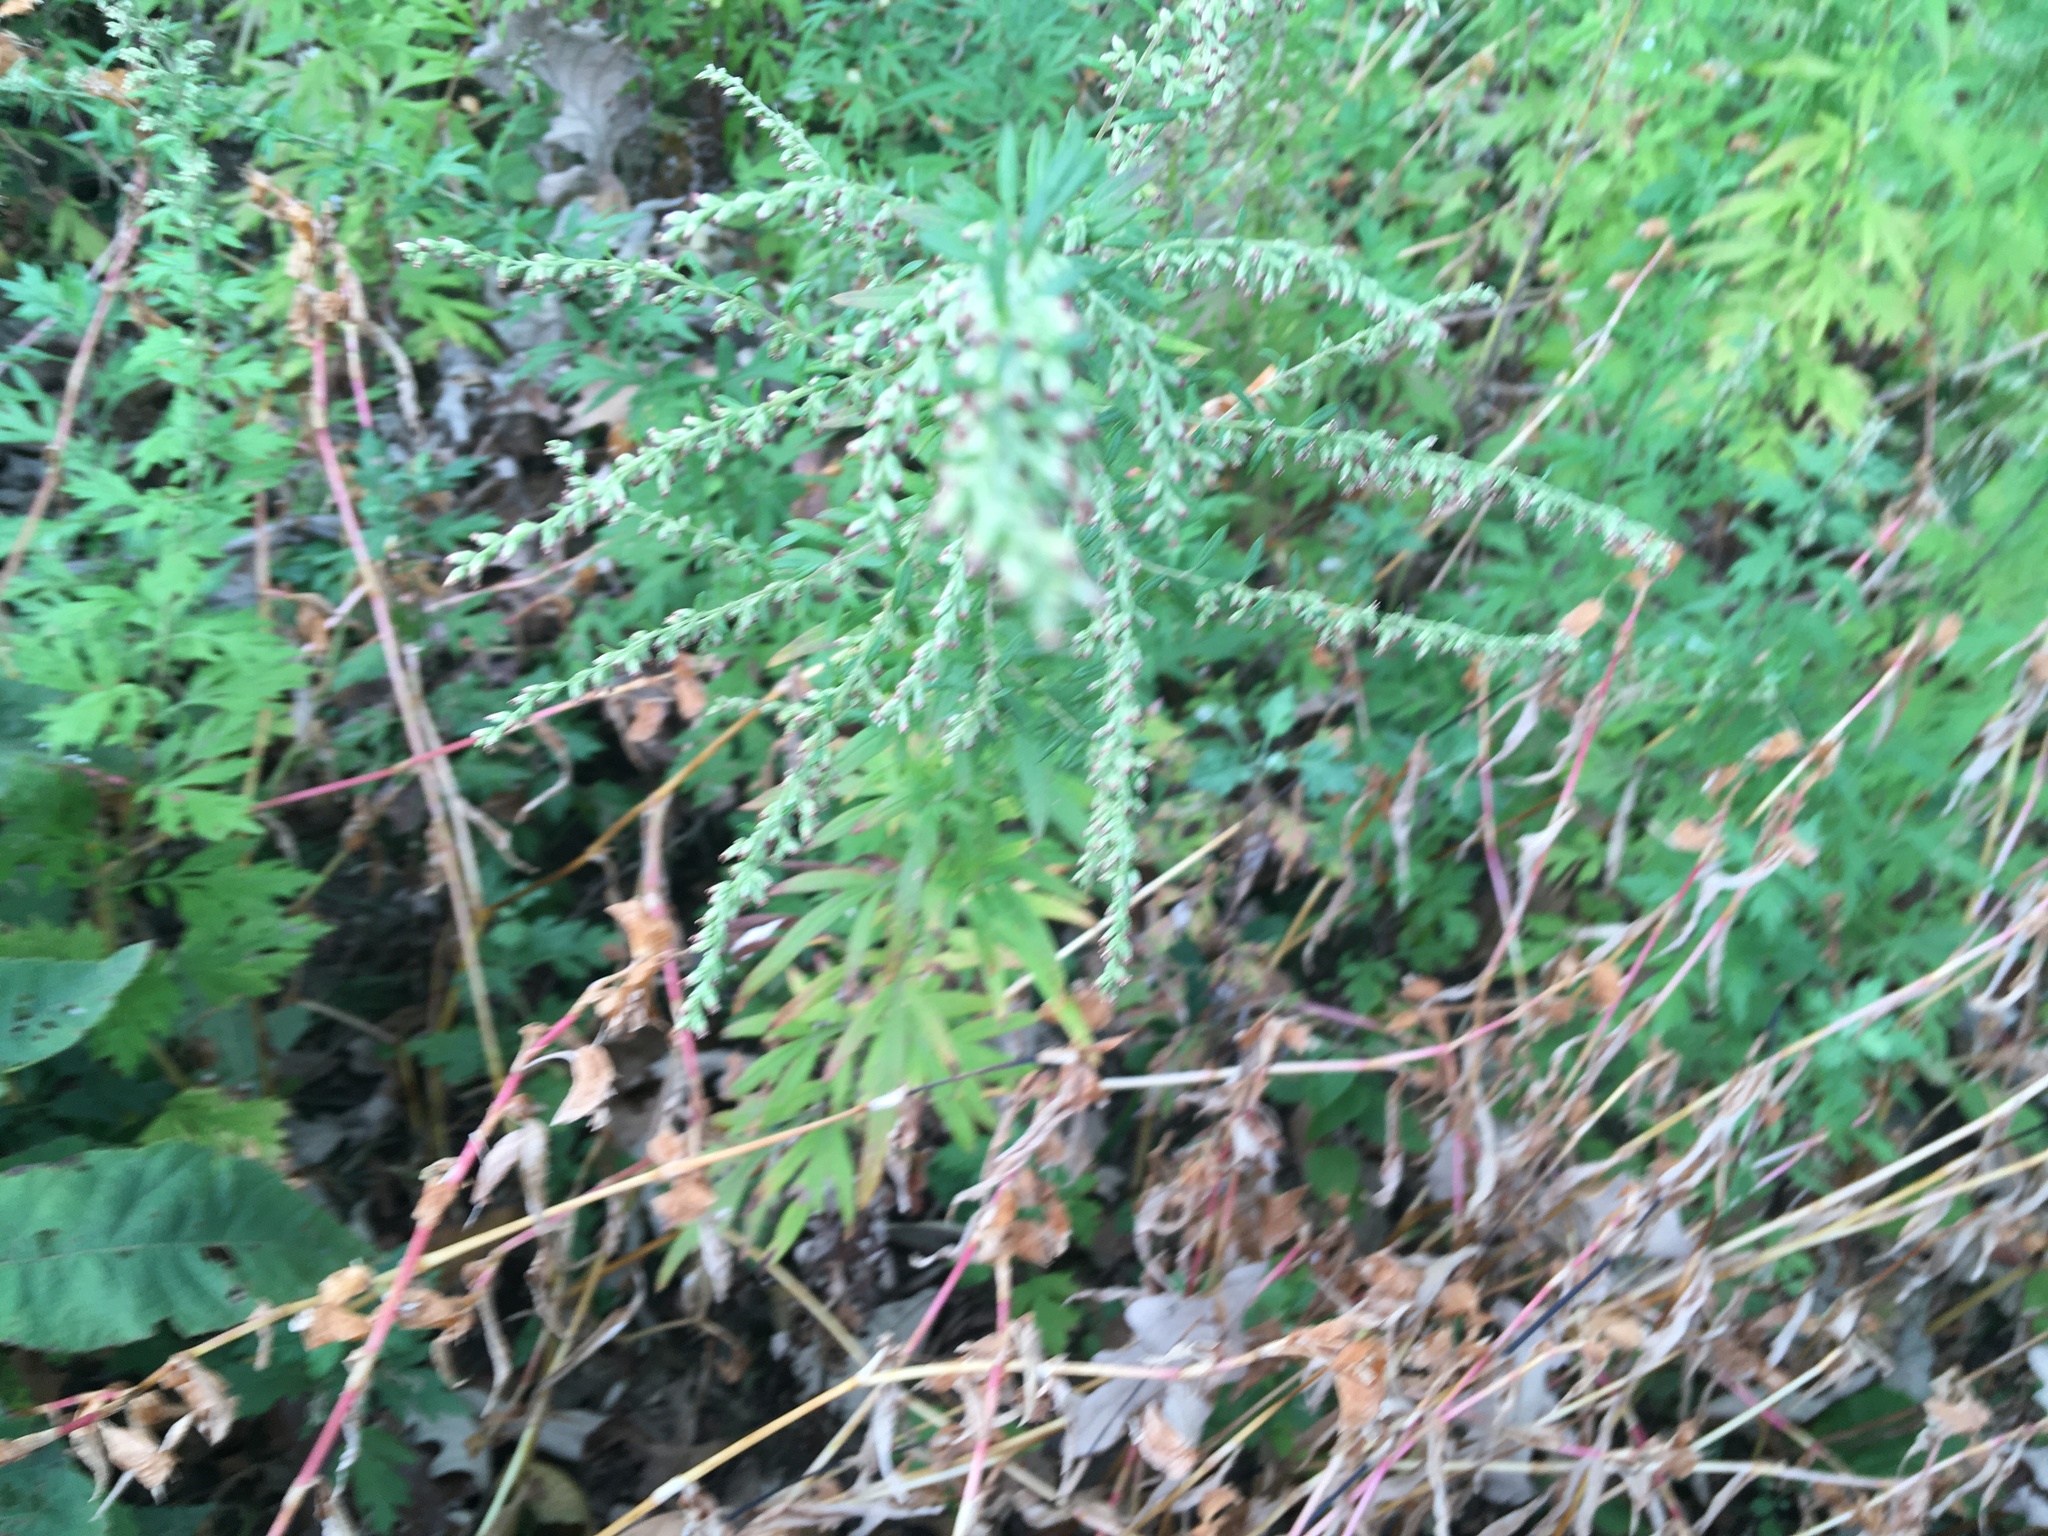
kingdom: Plantae
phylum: Tracheophyta
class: Magnoliopsida
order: Asterales
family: Asteraceae
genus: Artemisia
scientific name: Artemisia vulgaris
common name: Mugwort
